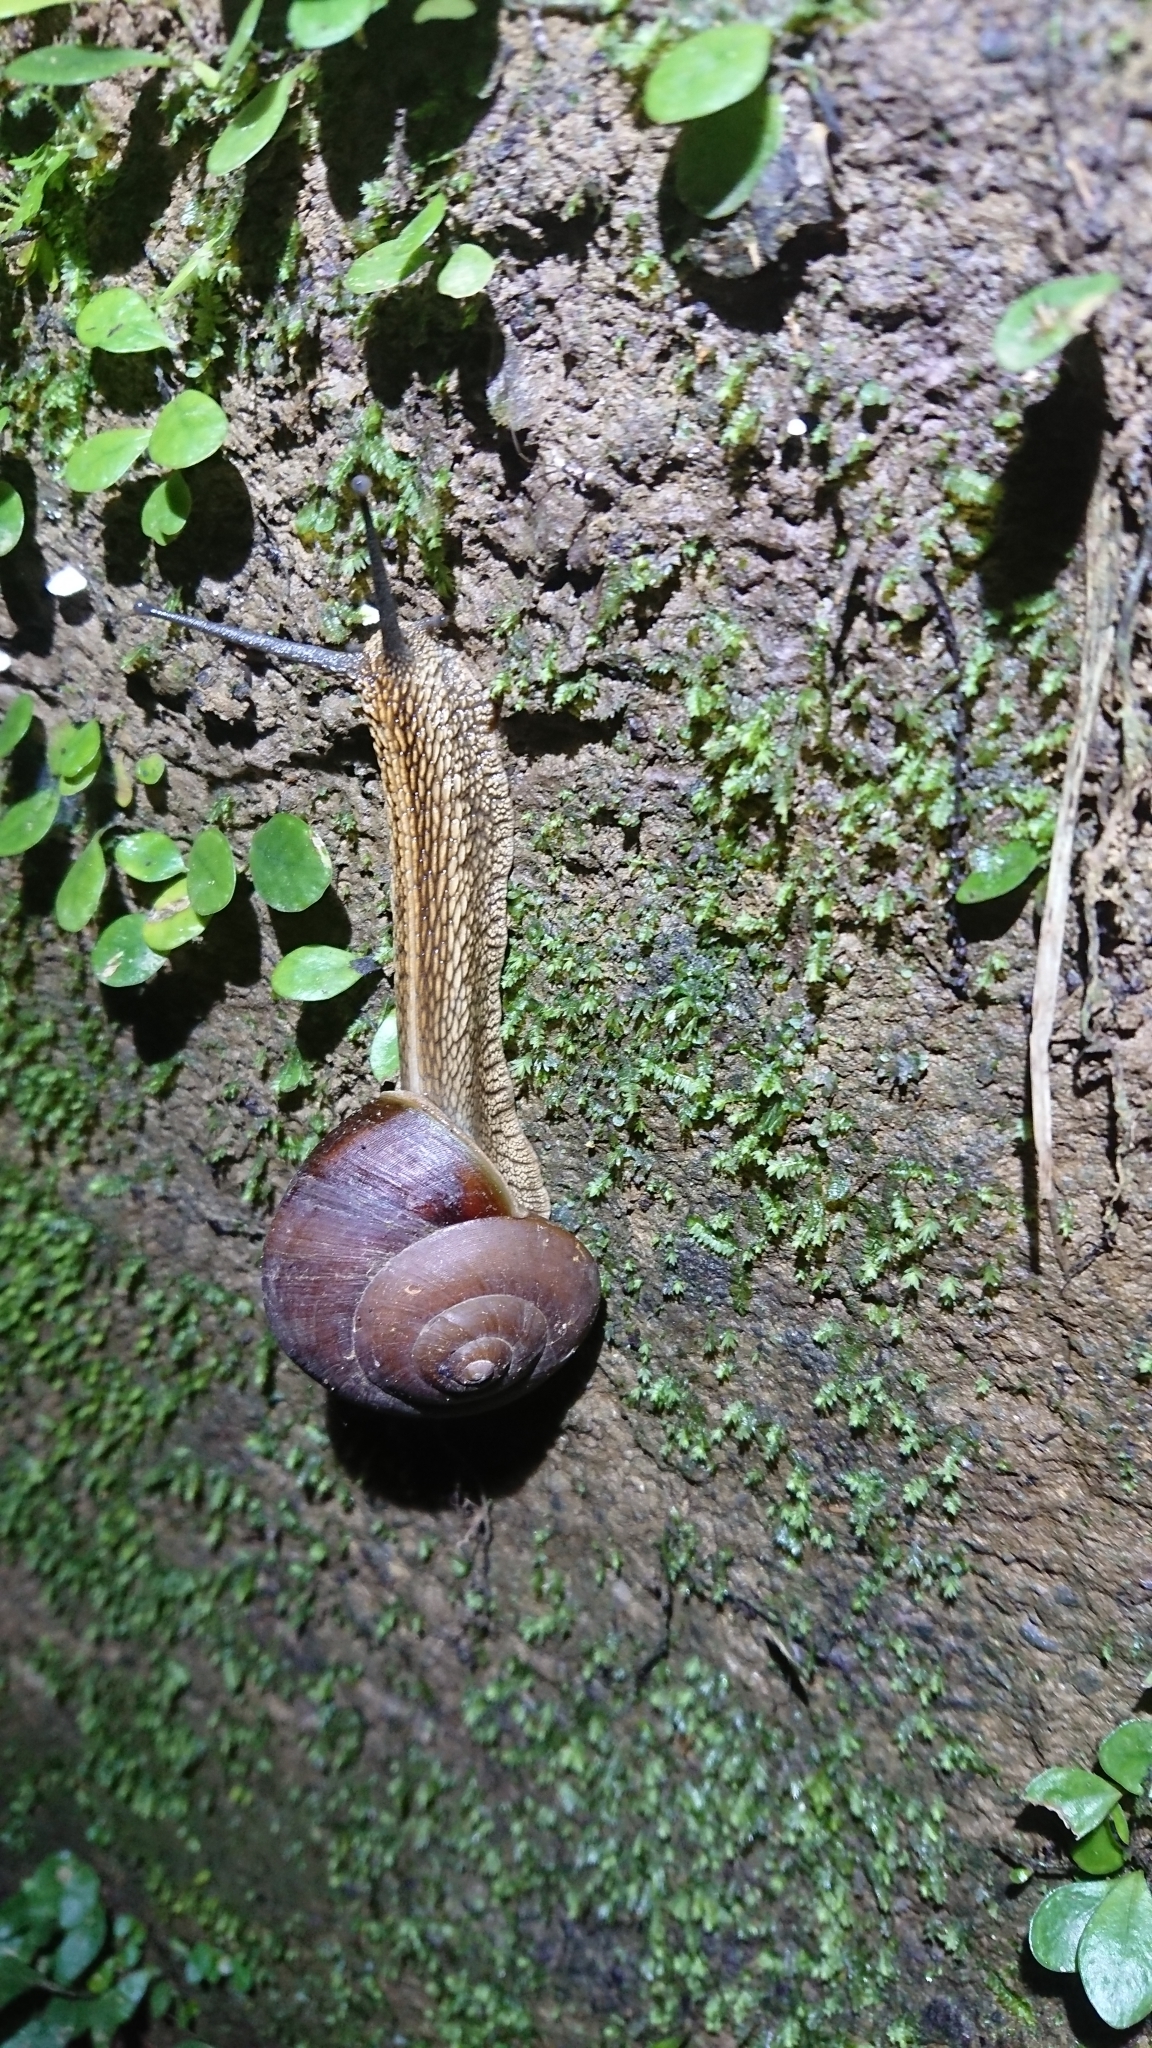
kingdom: Animalia
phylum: Mollusca
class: Gastropoda
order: Stylommatophora
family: Camaenidae
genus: Nesiohelix
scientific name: Nesiohelix swinhoei
